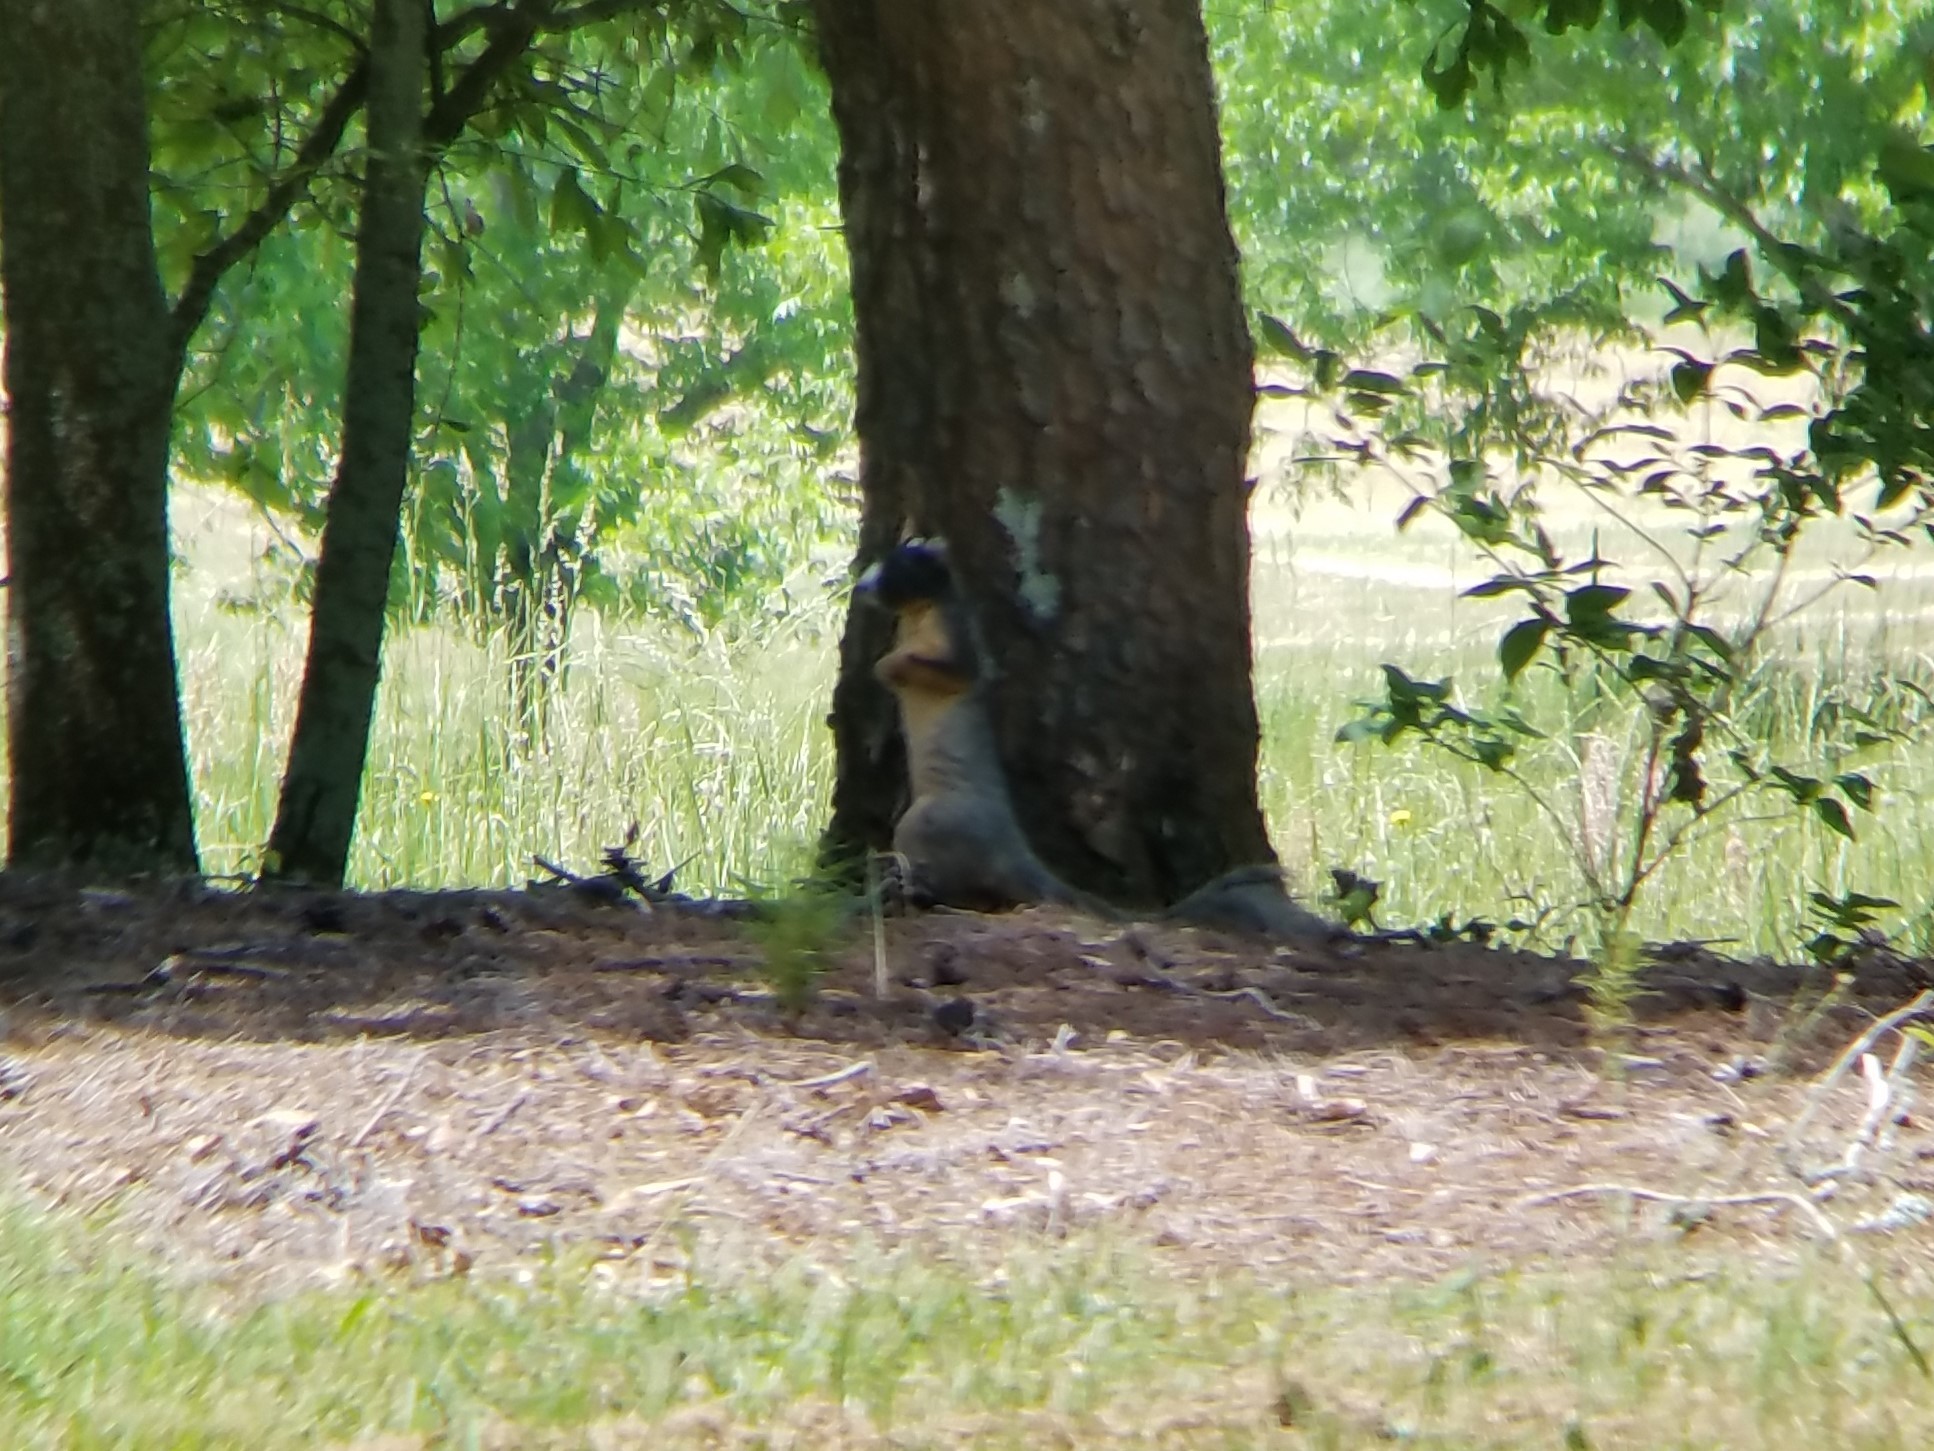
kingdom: Animalia
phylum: Chordata
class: Mammalia
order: Rodentia
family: Sciuridae
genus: Sciurus
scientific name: Sciurus niger
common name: Fox squirrel
